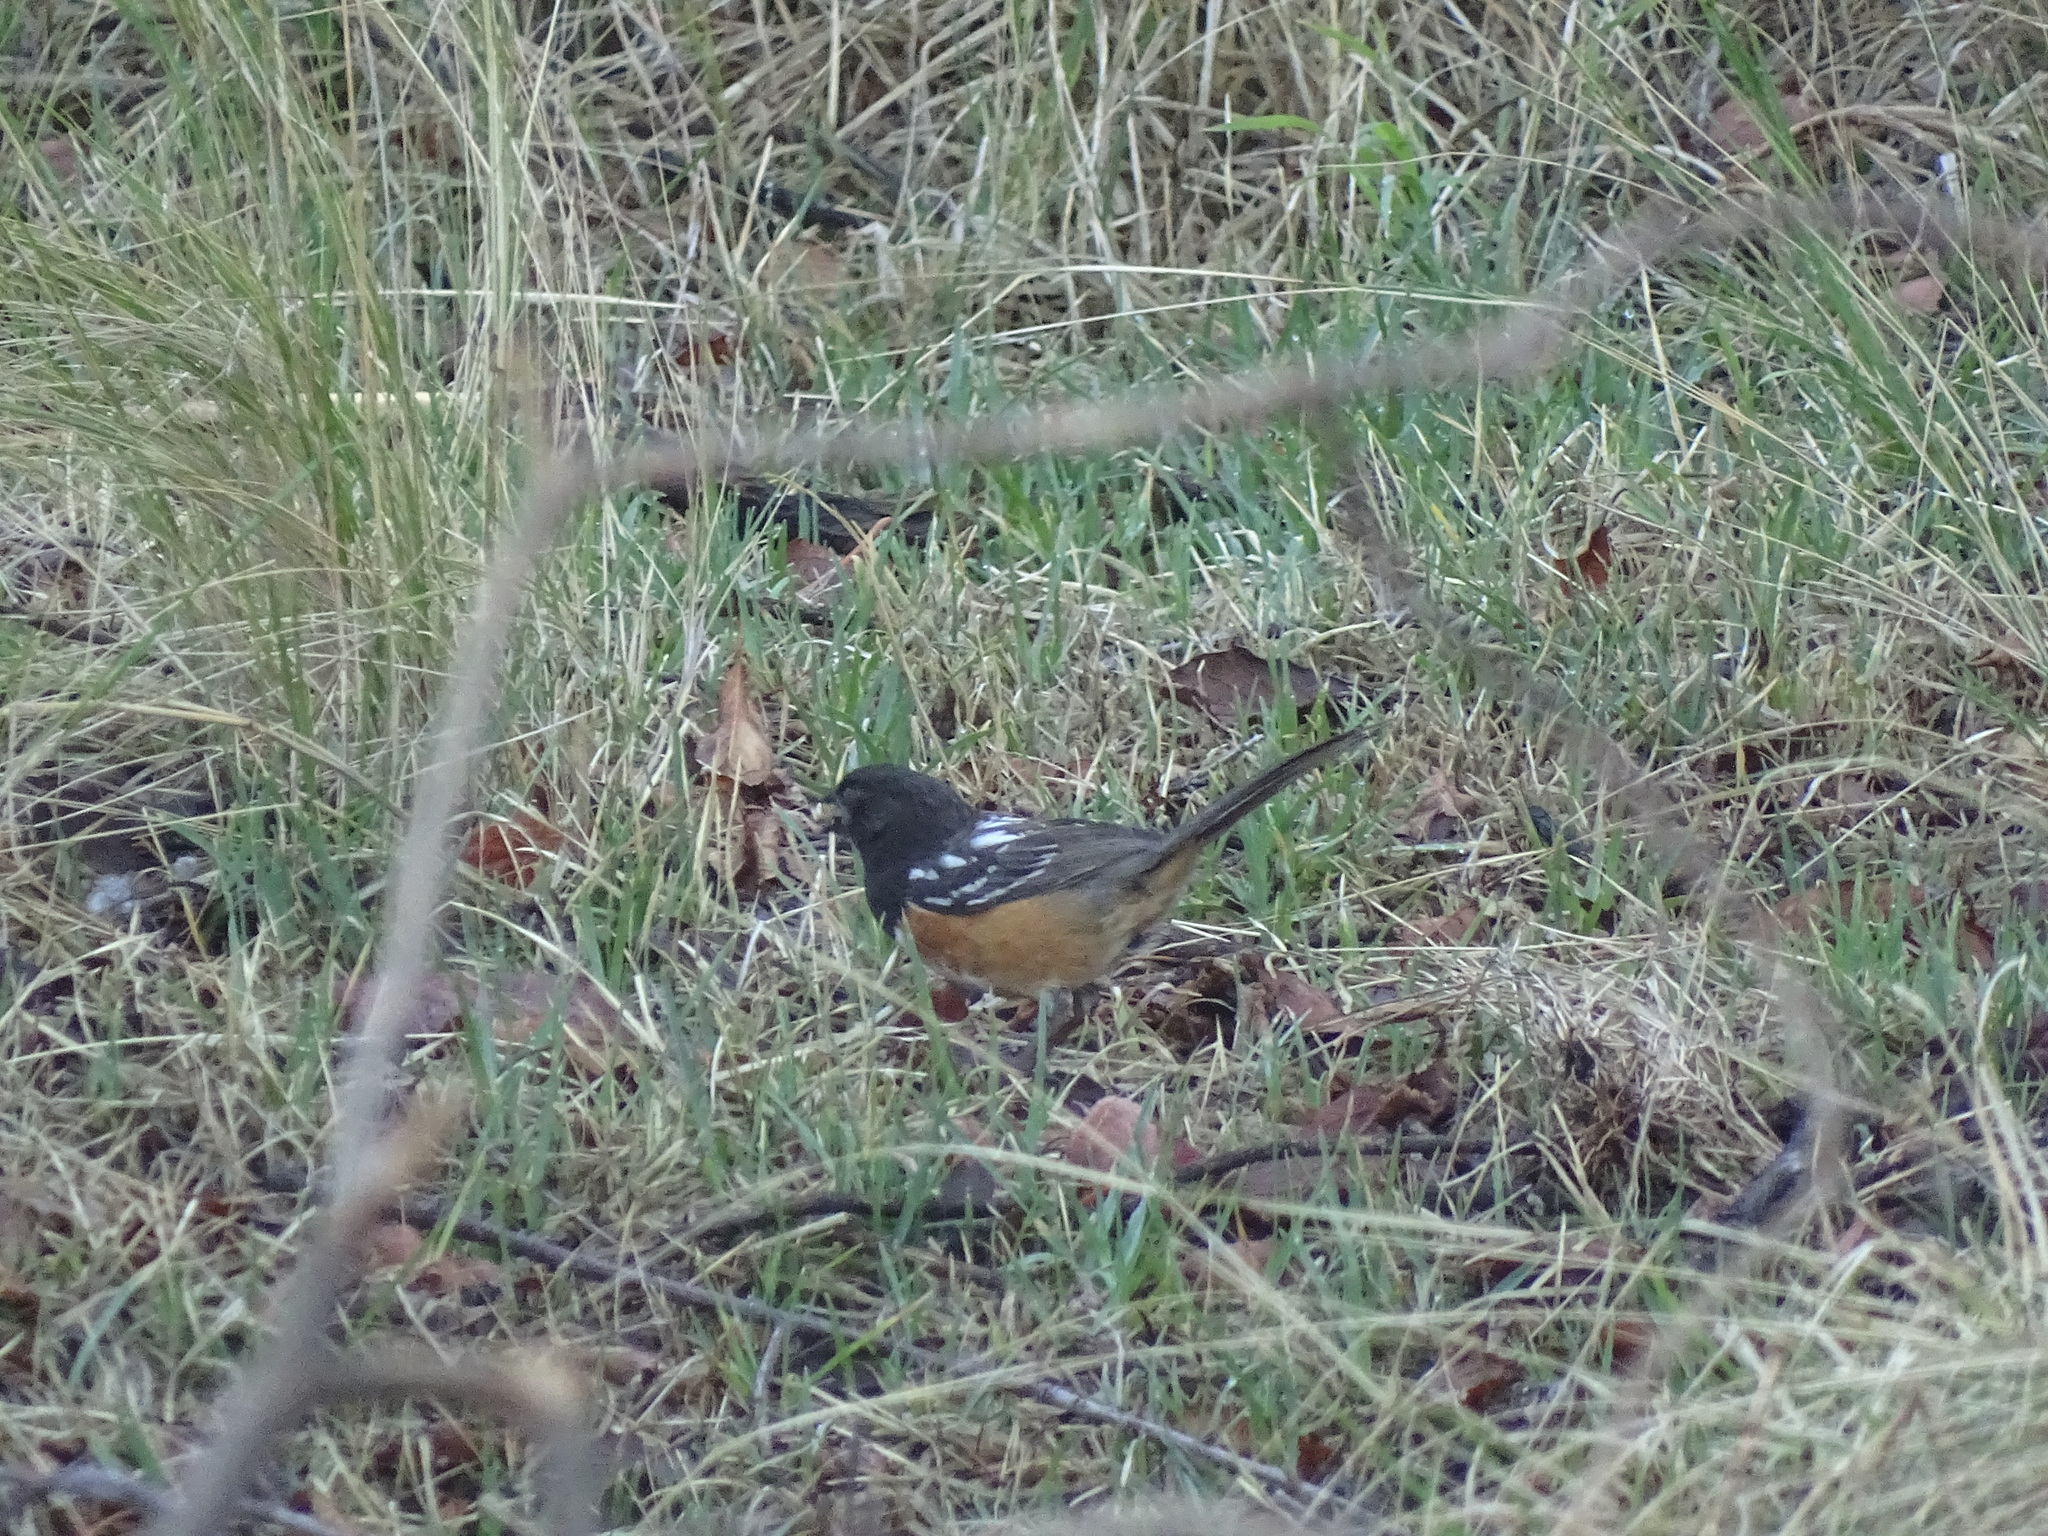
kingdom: Animalia
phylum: Chordata
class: Aves
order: Passeriformes
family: Passerellidae
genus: Pipilo
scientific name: Pipilo maculatus
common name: Spotted towhee
